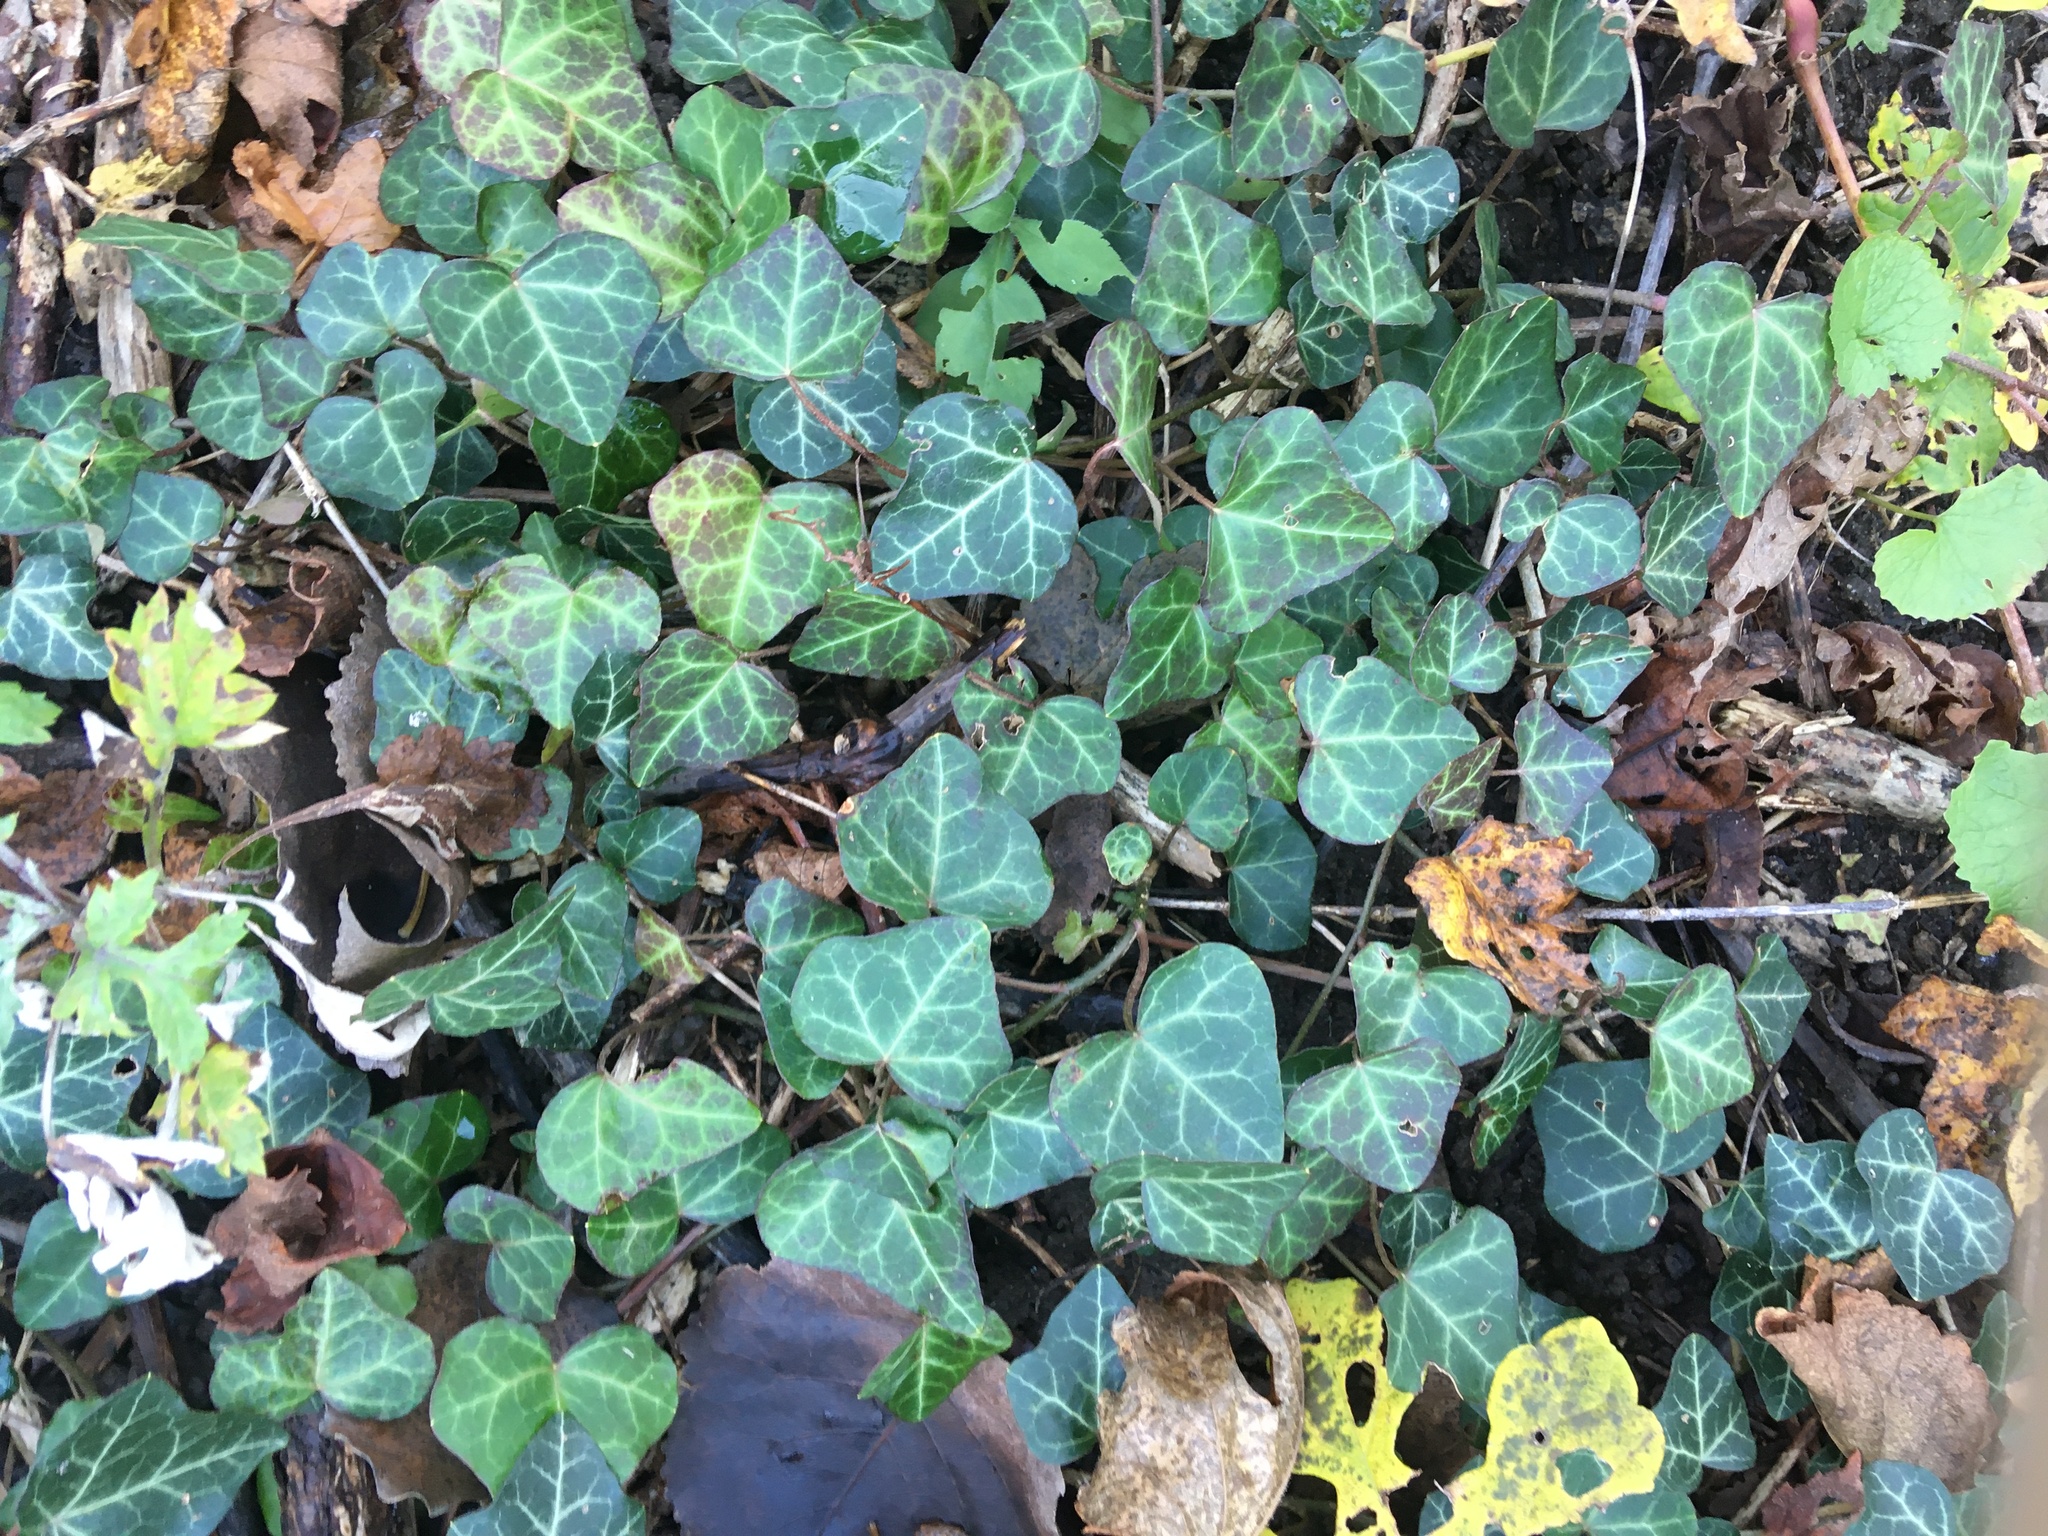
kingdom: Plantae
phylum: Tracheophyta
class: Magnoliopsida
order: Apiales
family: Araliaceae
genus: Hedera
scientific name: Hedera helix
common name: Ivy
